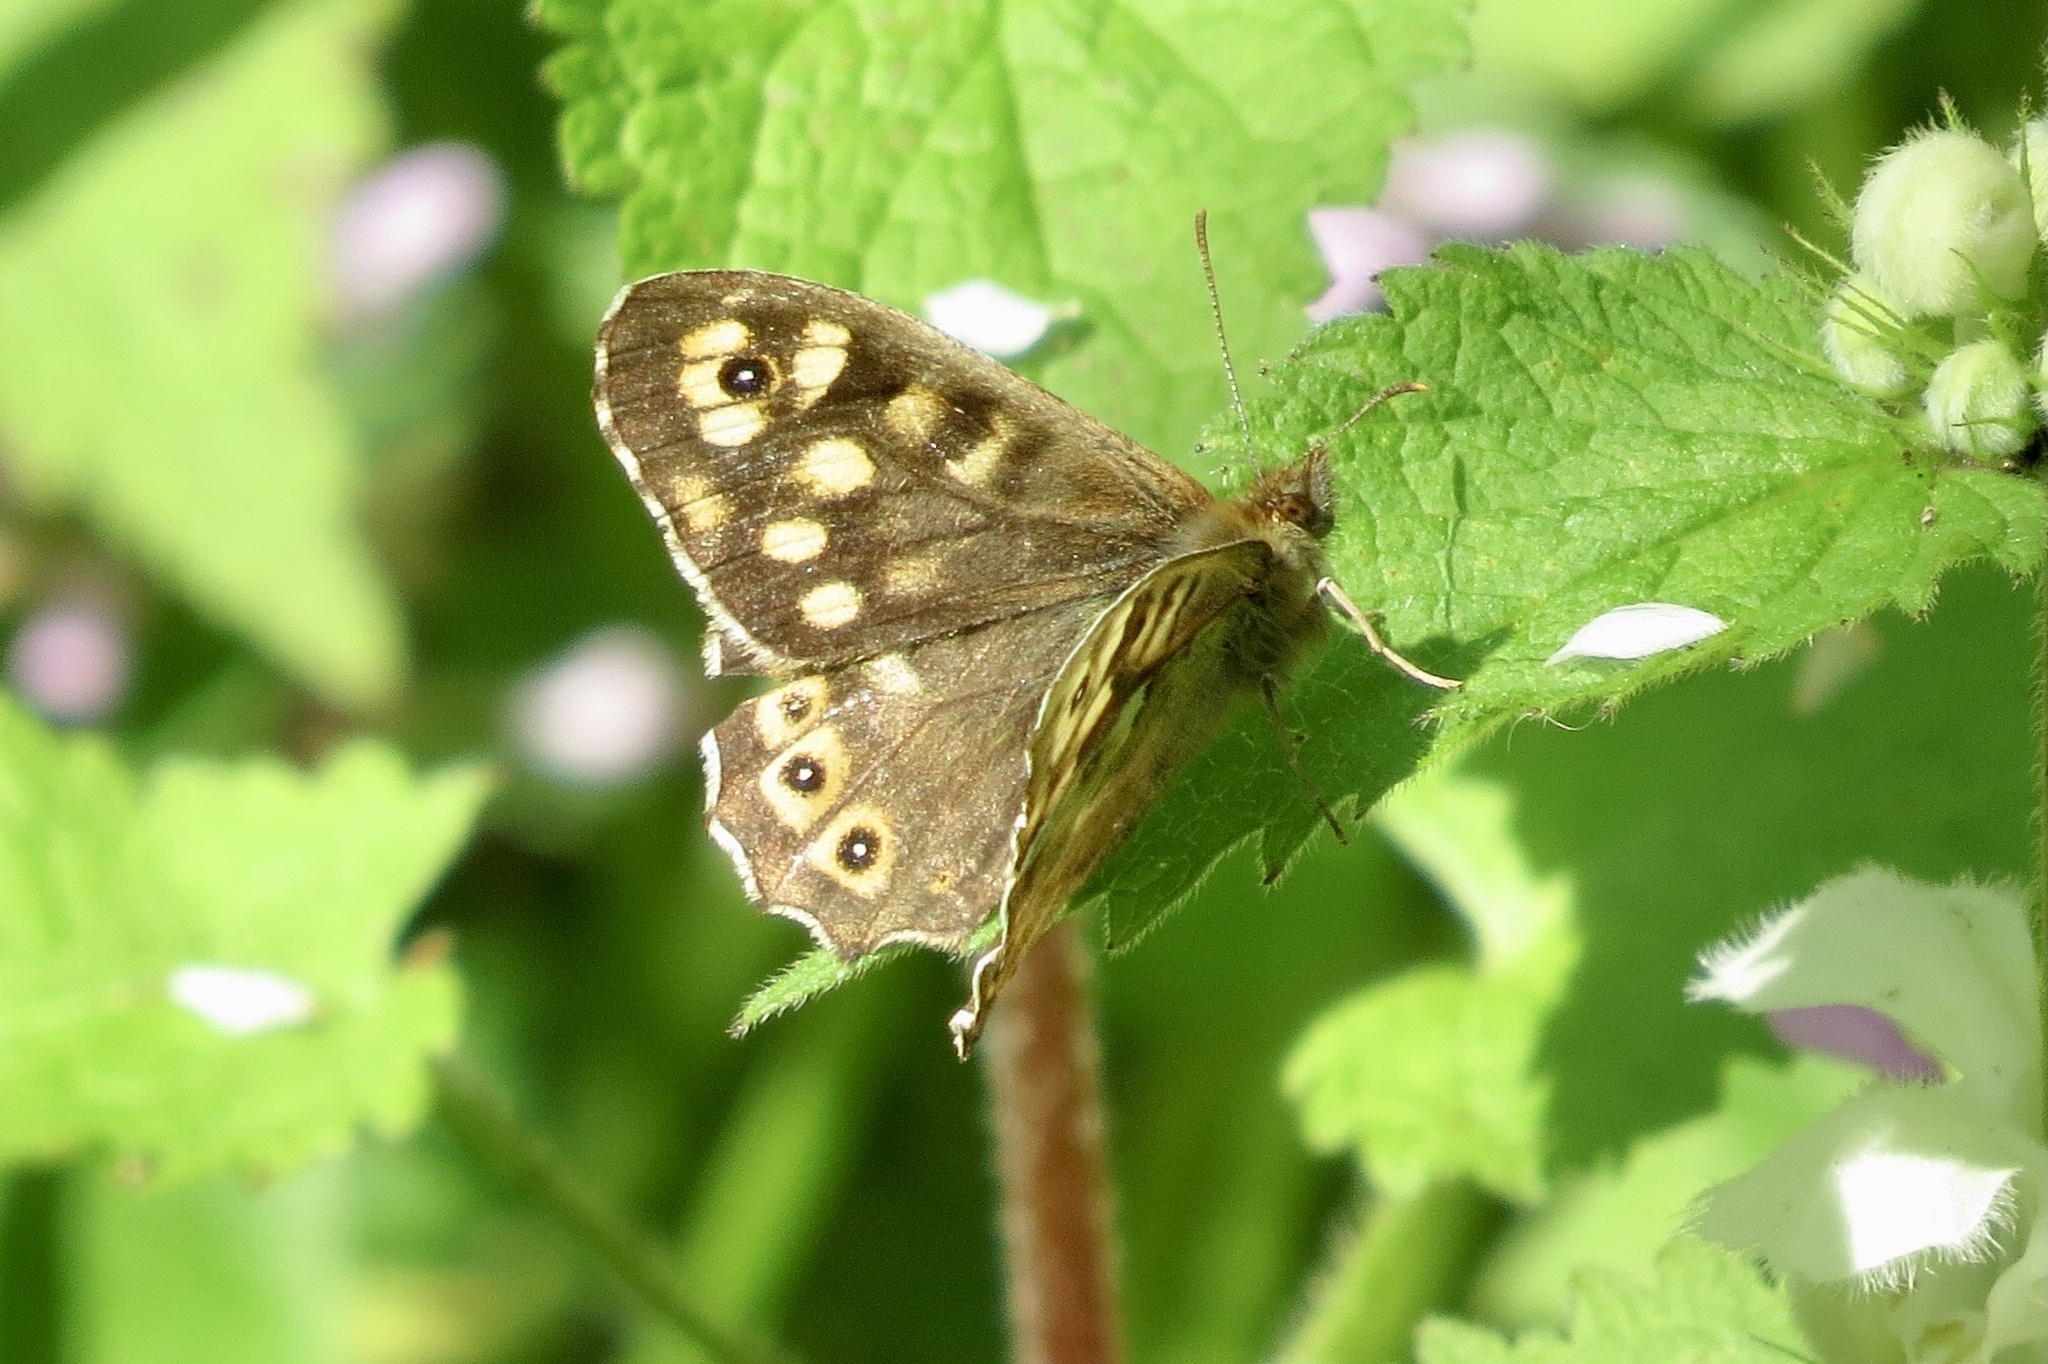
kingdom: Animalia
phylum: Arthropoda
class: Insecta
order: Lepidoptera
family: Nymphalidae
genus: Pararge
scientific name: Pararge aegeria
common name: Speckled wood
